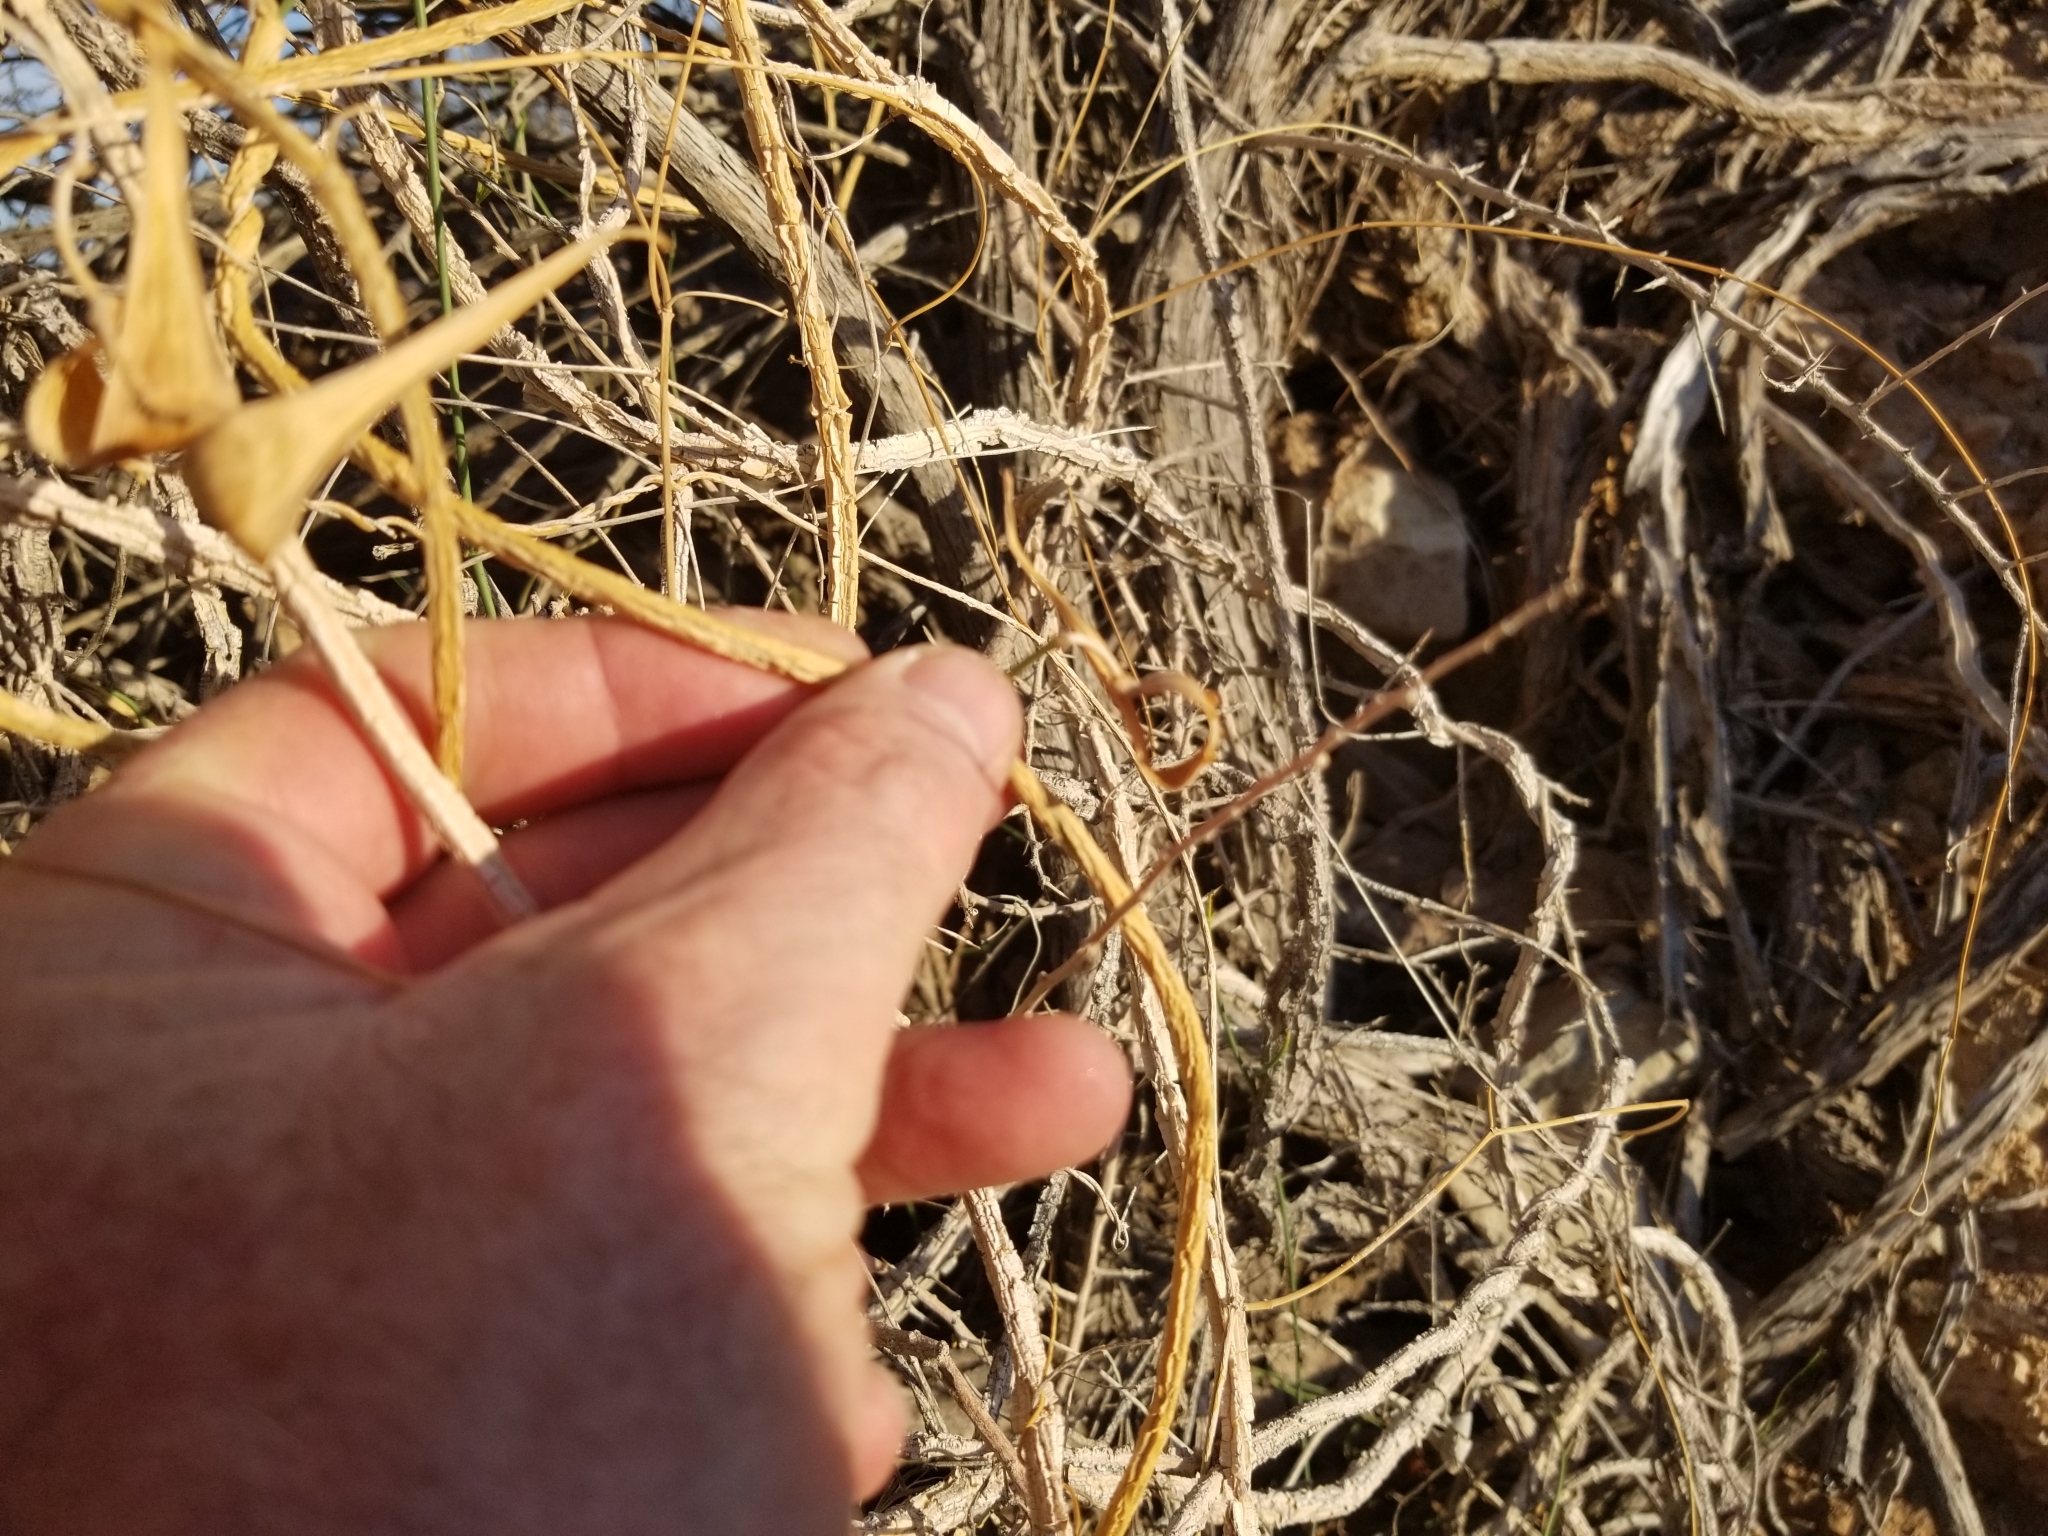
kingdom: Plantae
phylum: Tracheophyta
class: Magnoliopsida
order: Gentianales
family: Apocynaceae
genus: Funastrum
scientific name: Funastrum heterophyllum
